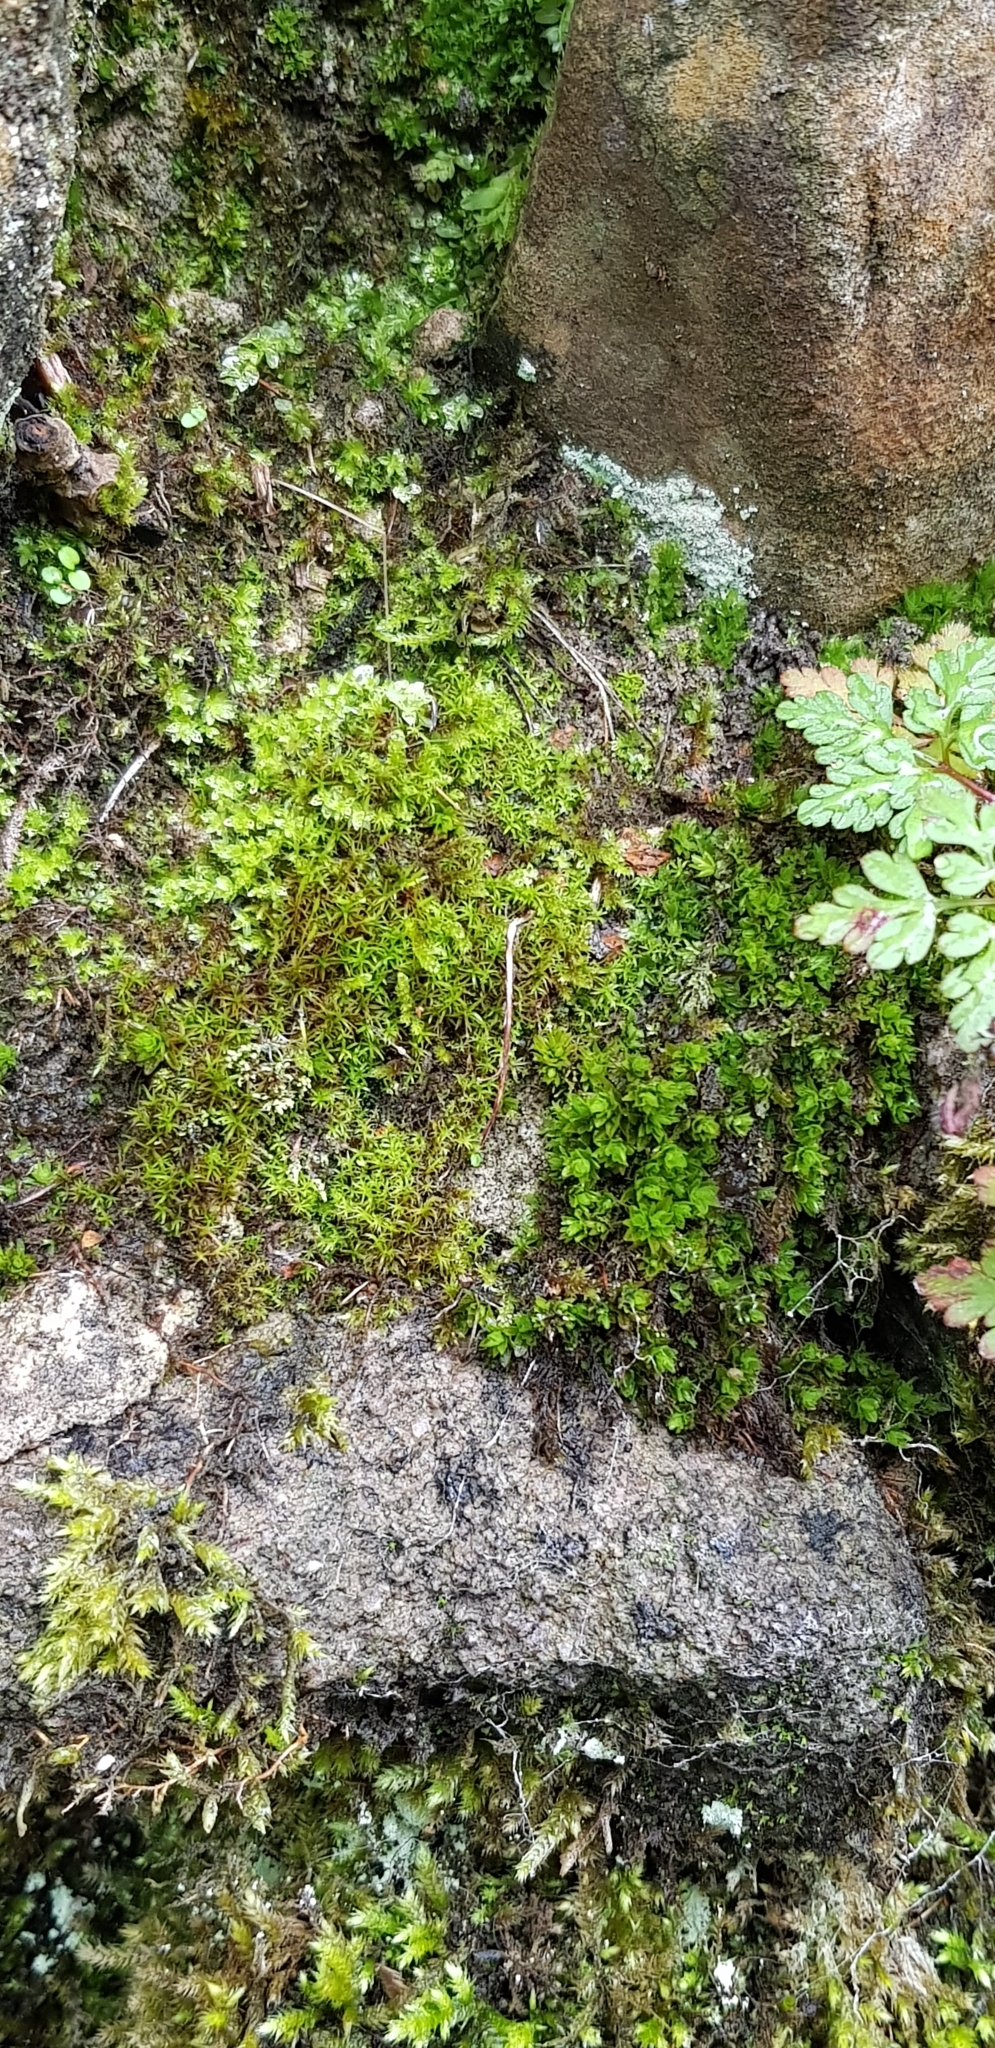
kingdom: Plantae
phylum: Bryophyta
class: Bryopsida
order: Bryales
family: Bryaceae
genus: Rosulabryum
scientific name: Rosulabryum capillare
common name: Capillary thread-moss
